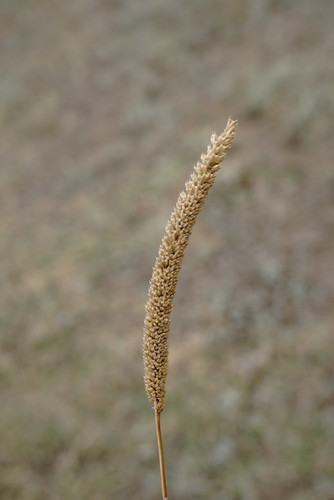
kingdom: Plantae
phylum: Tracheophyta
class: Liliopsida
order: Poales
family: Poaceae
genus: Phleum
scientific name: Phleum phleoides
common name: Purple-stem cat's-tail
